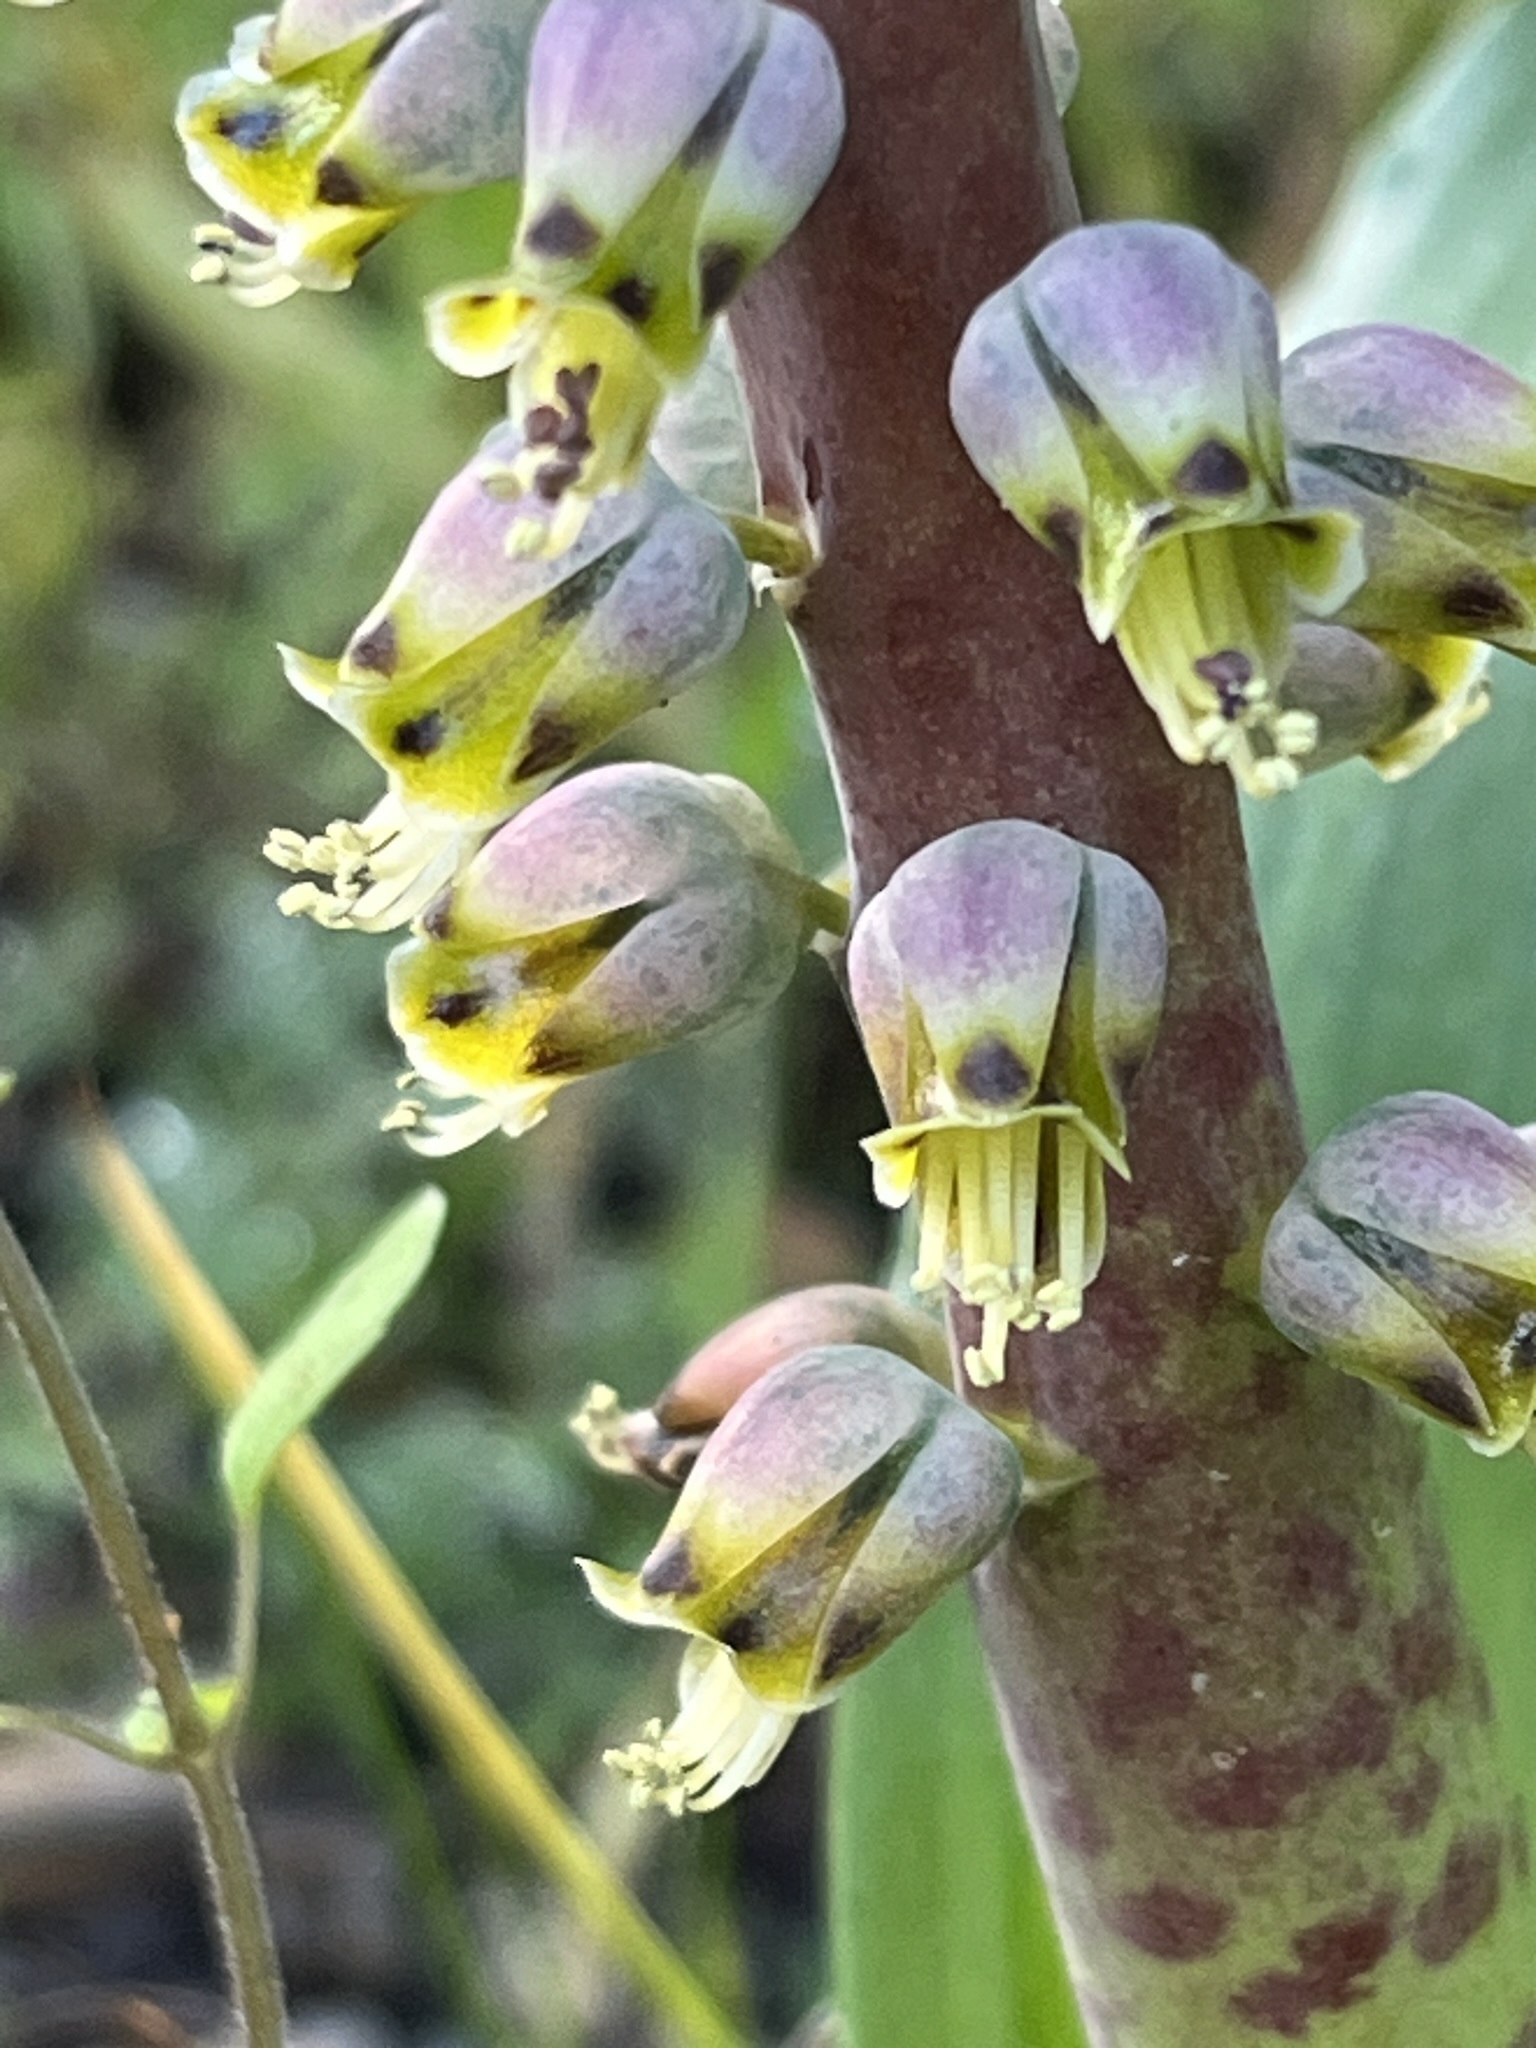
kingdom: Plantae
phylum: Tracheophyta
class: Liliopsida
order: Asparagales
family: Asparagaceae
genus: Lachenalia
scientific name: Lachenalia mutabilis
